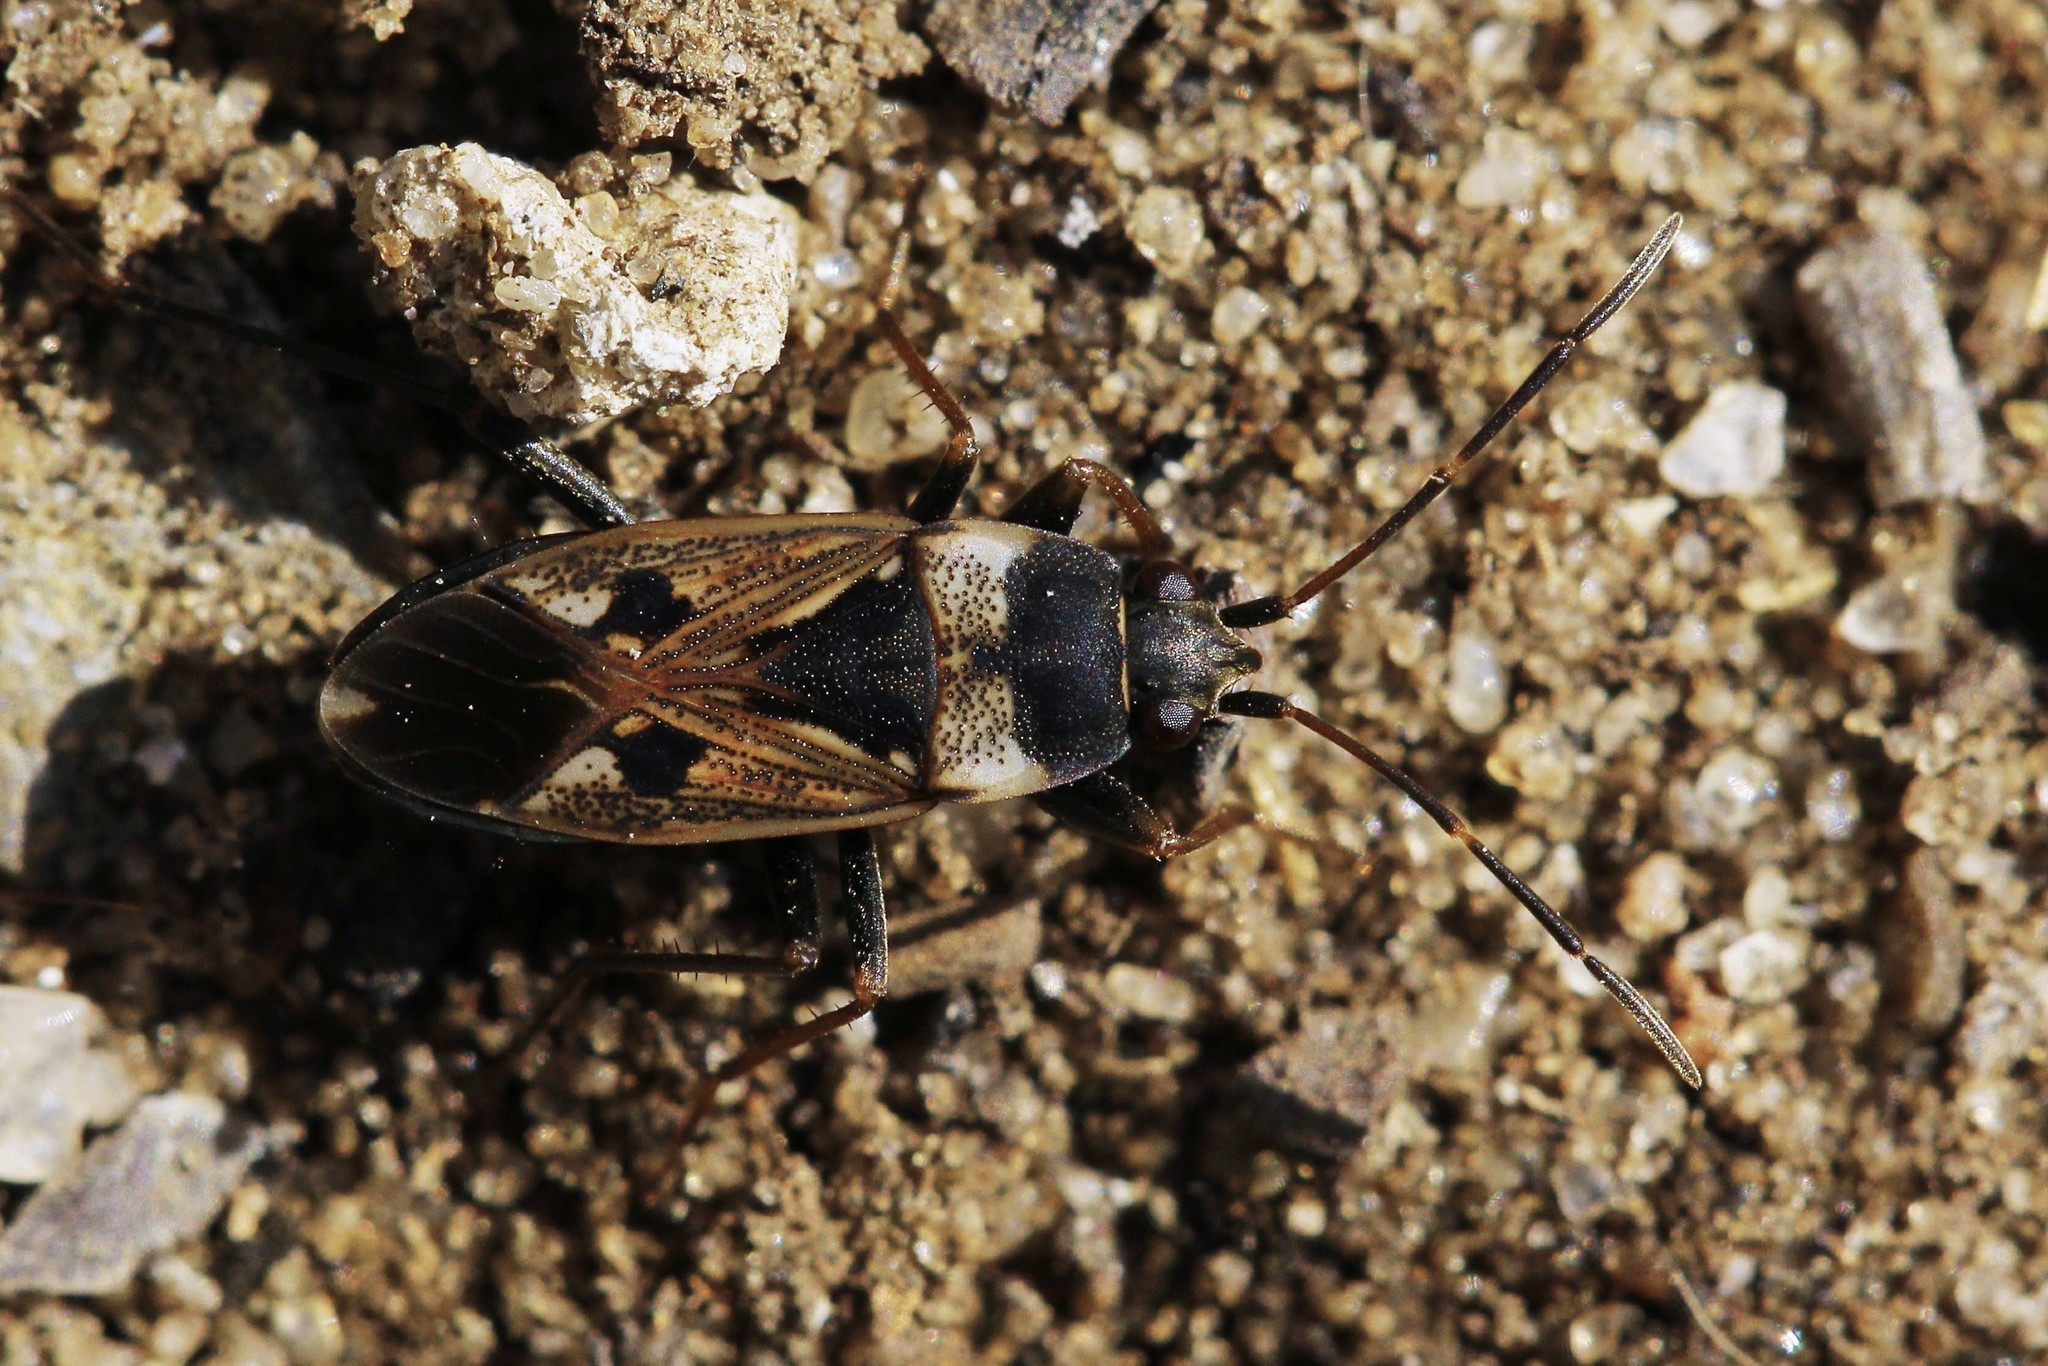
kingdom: Animalia
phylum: Arthropoda
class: Insecta
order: Hemiptera
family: Rhyparochromidae
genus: Rhyparochromus
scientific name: Rhyparochromus vulgaris
